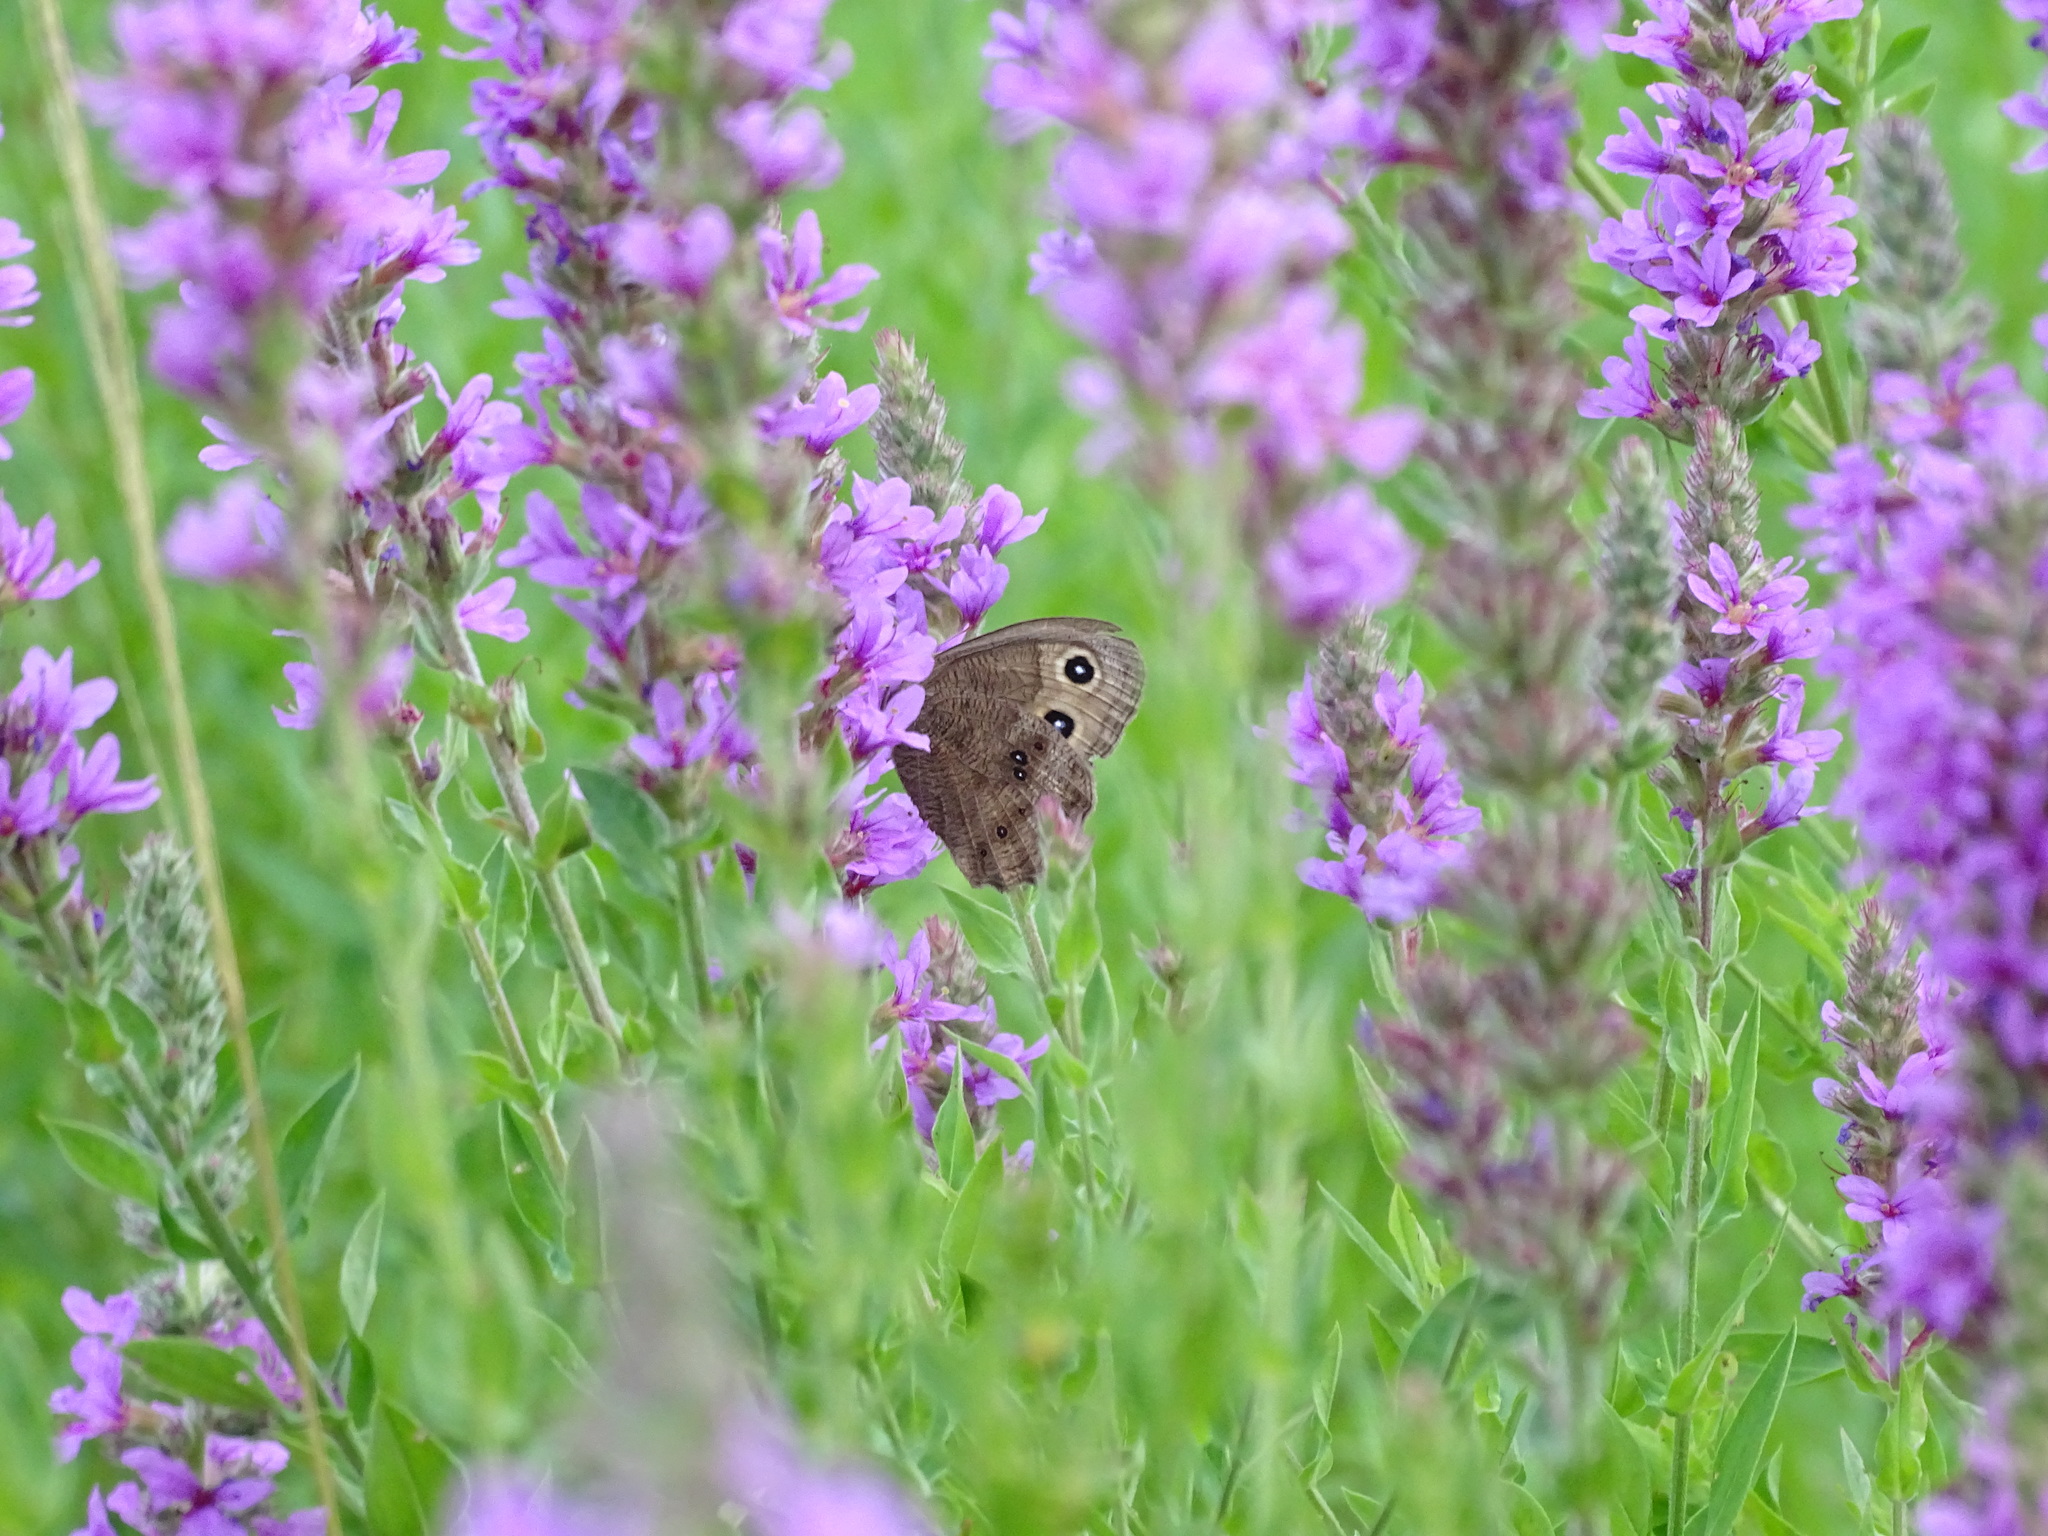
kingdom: Animalia
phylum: Arthropoda
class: Insecta
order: Lepidoptera
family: Nymphalidae
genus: Cercyonis
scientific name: Cercyonis pegala
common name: Common wood-nymph
